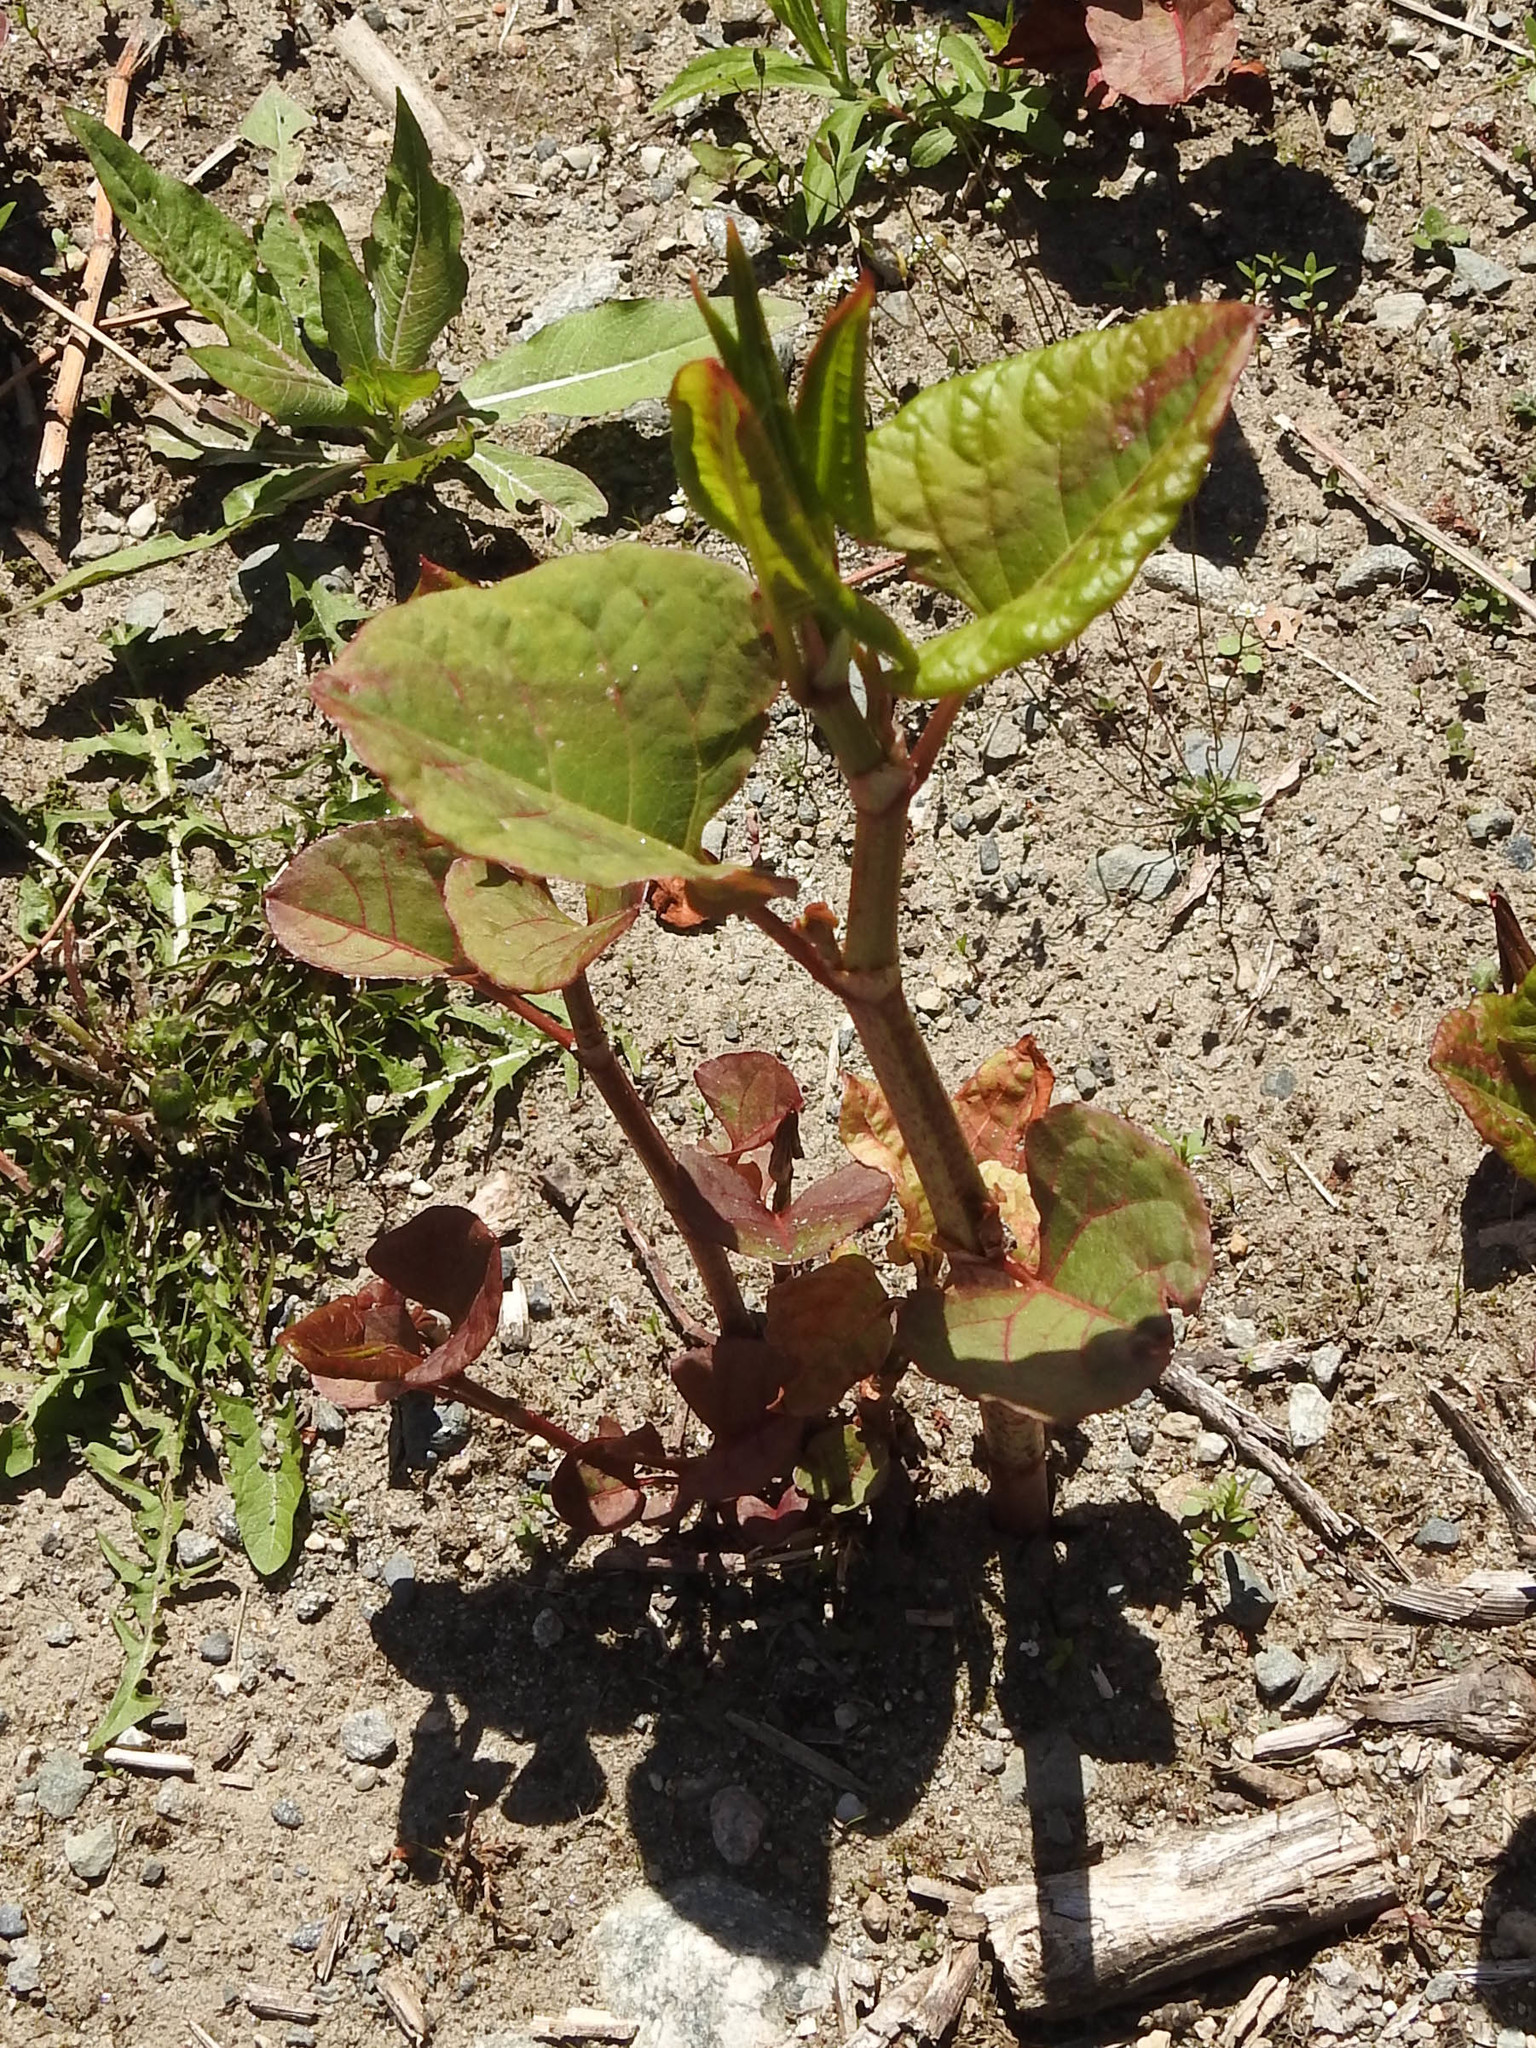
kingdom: Plantae
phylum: Tracheophyta
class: Magnoliopsida
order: Caryophyllales
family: Polygonaceae
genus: Reynoutria
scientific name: Reynoutria japonica
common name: Japanese knotweed
